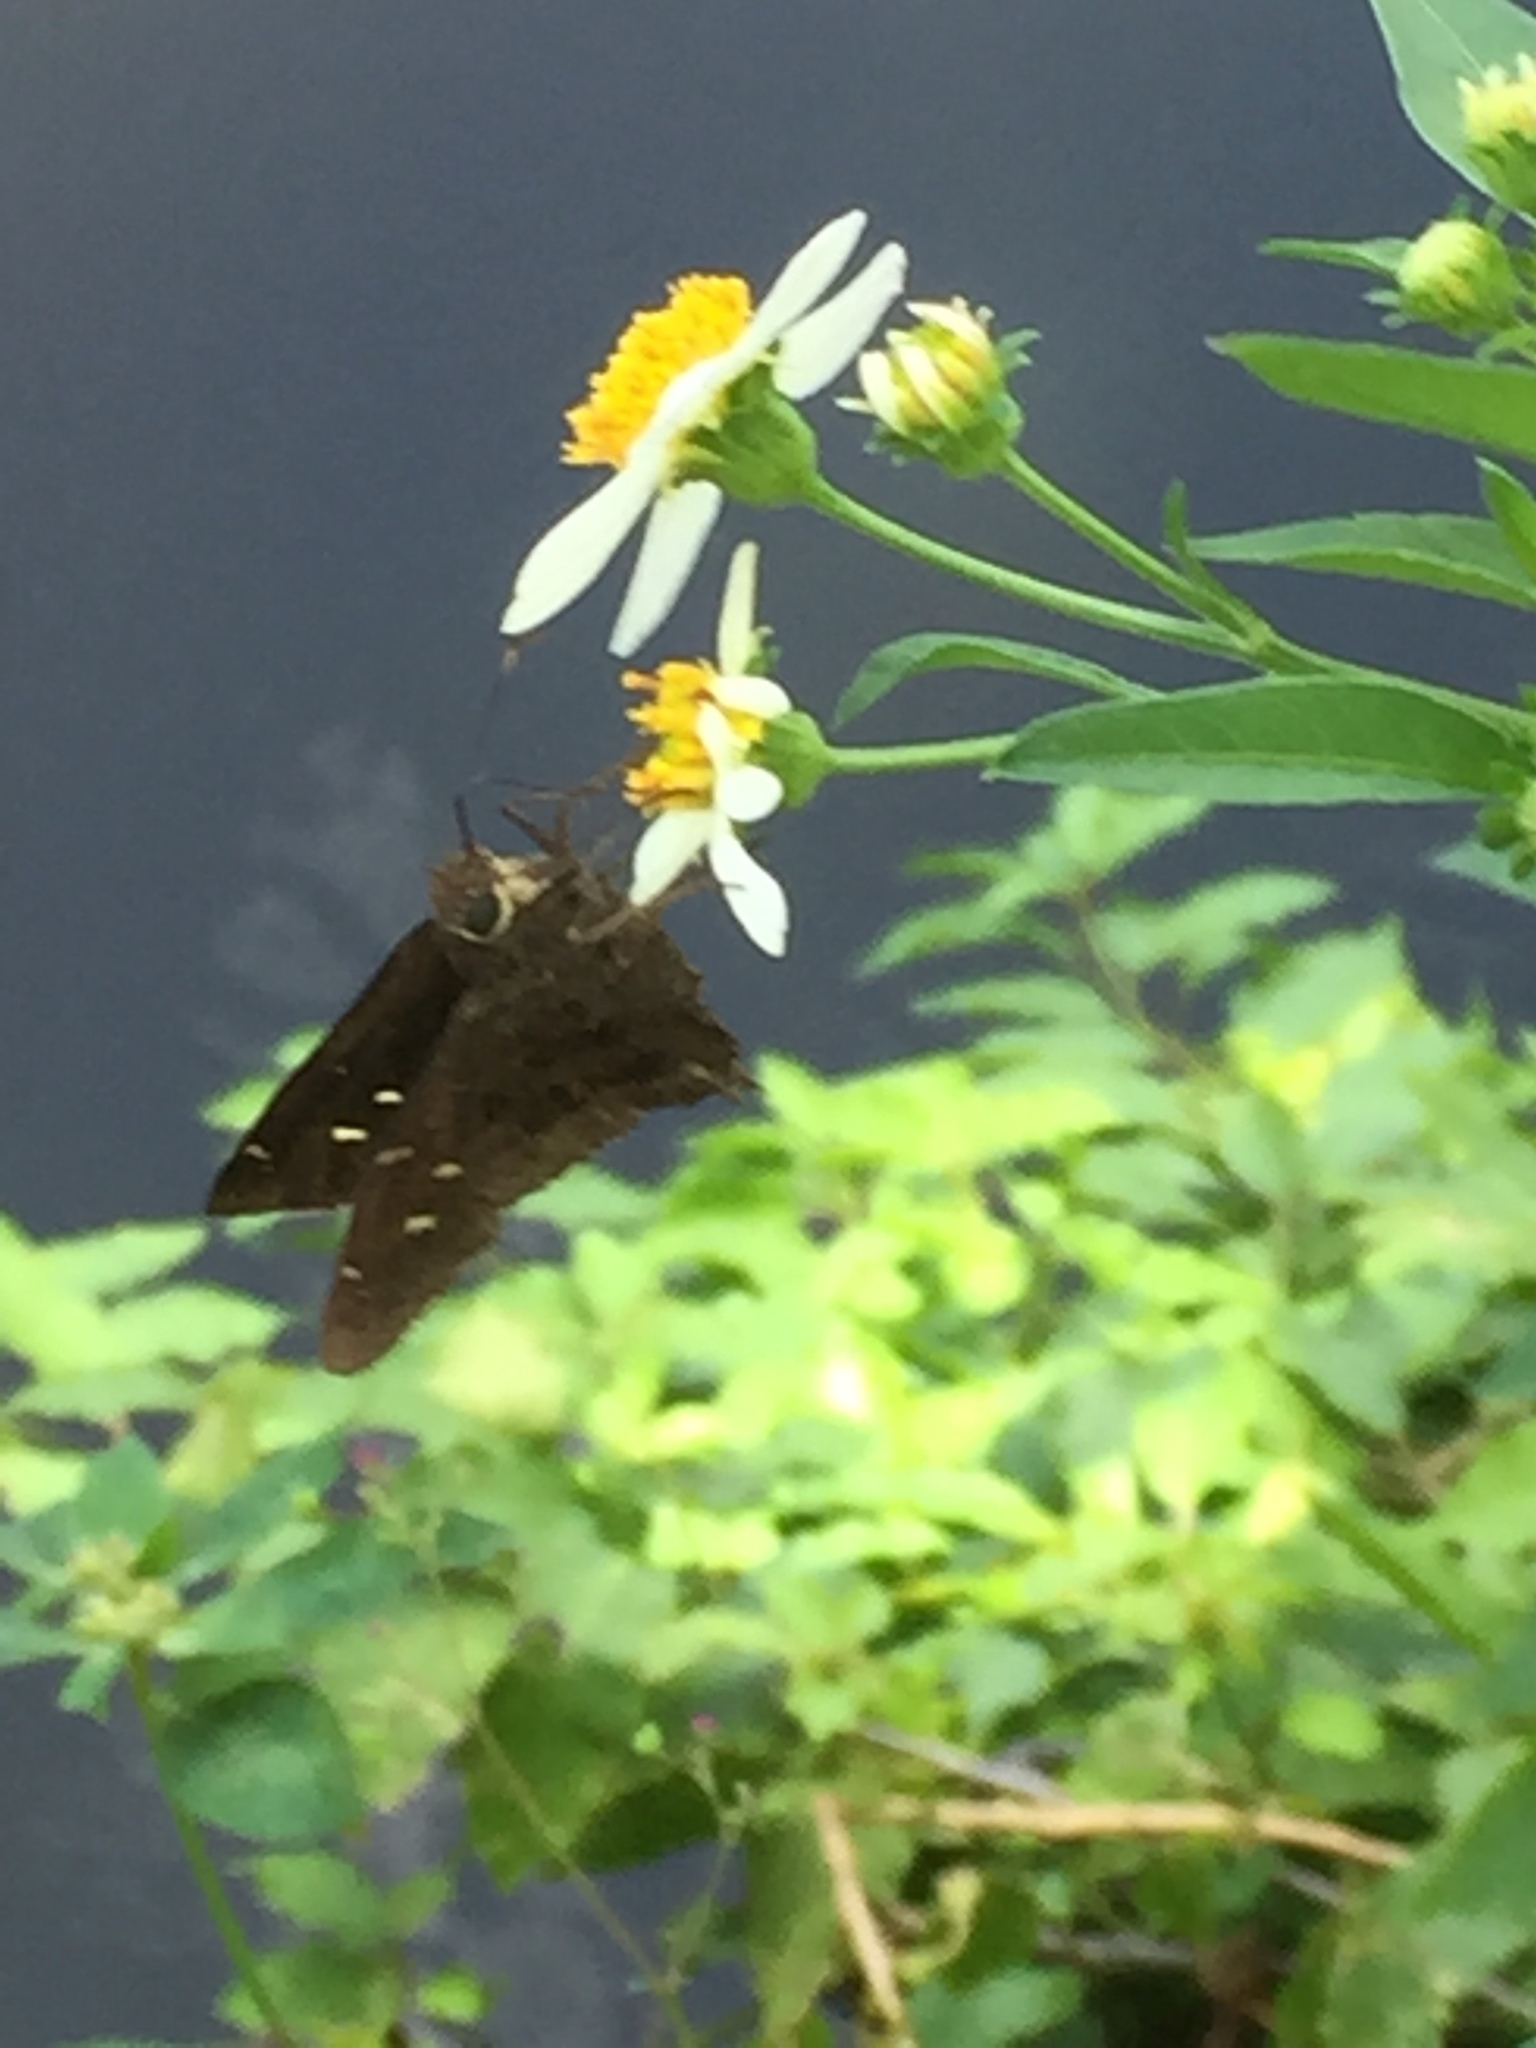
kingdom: Animalia
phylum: Arthropoda
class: Insecta
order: Lepidoptera
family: Hesperiidae
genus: Thorybes
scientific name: Thorybes
